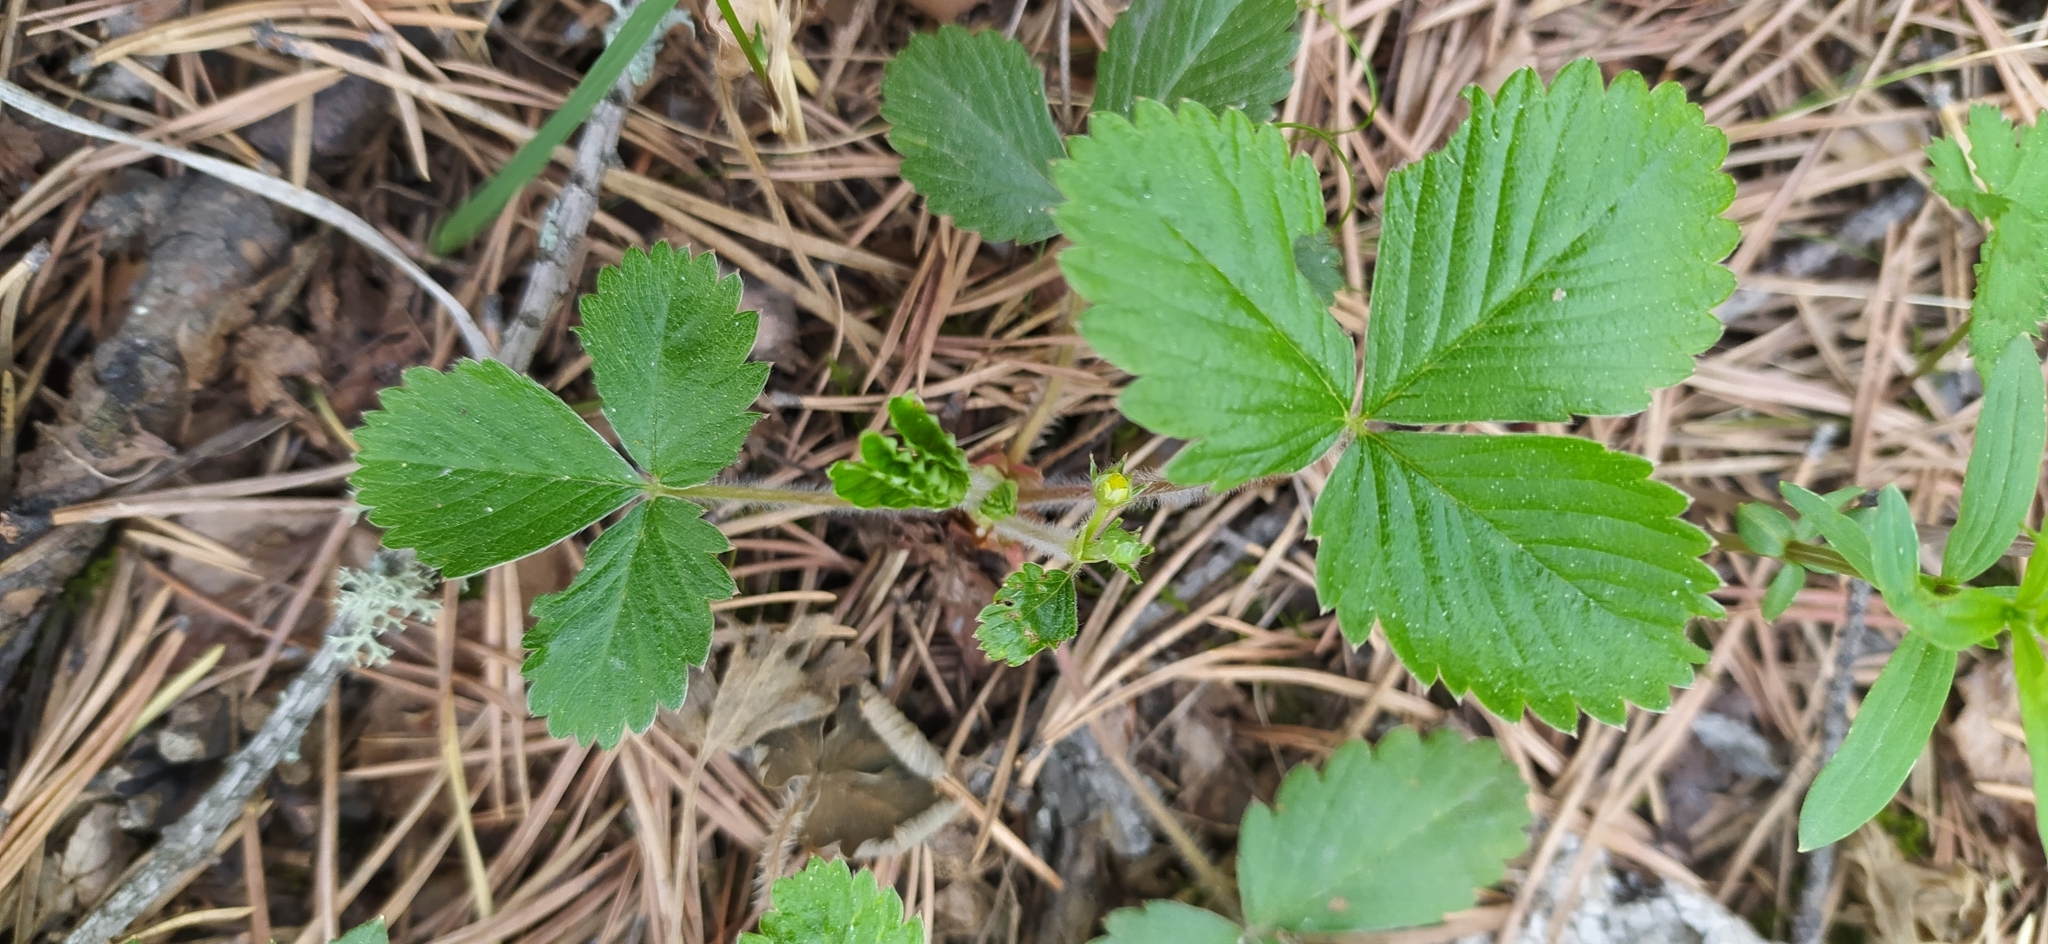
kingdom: Plantae
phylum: Tracheophyta
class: Magnoliopsida
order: Rosales
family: Rosaceae
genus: Fragaria
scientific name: Fragaria vesca
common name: Wild strawberry
